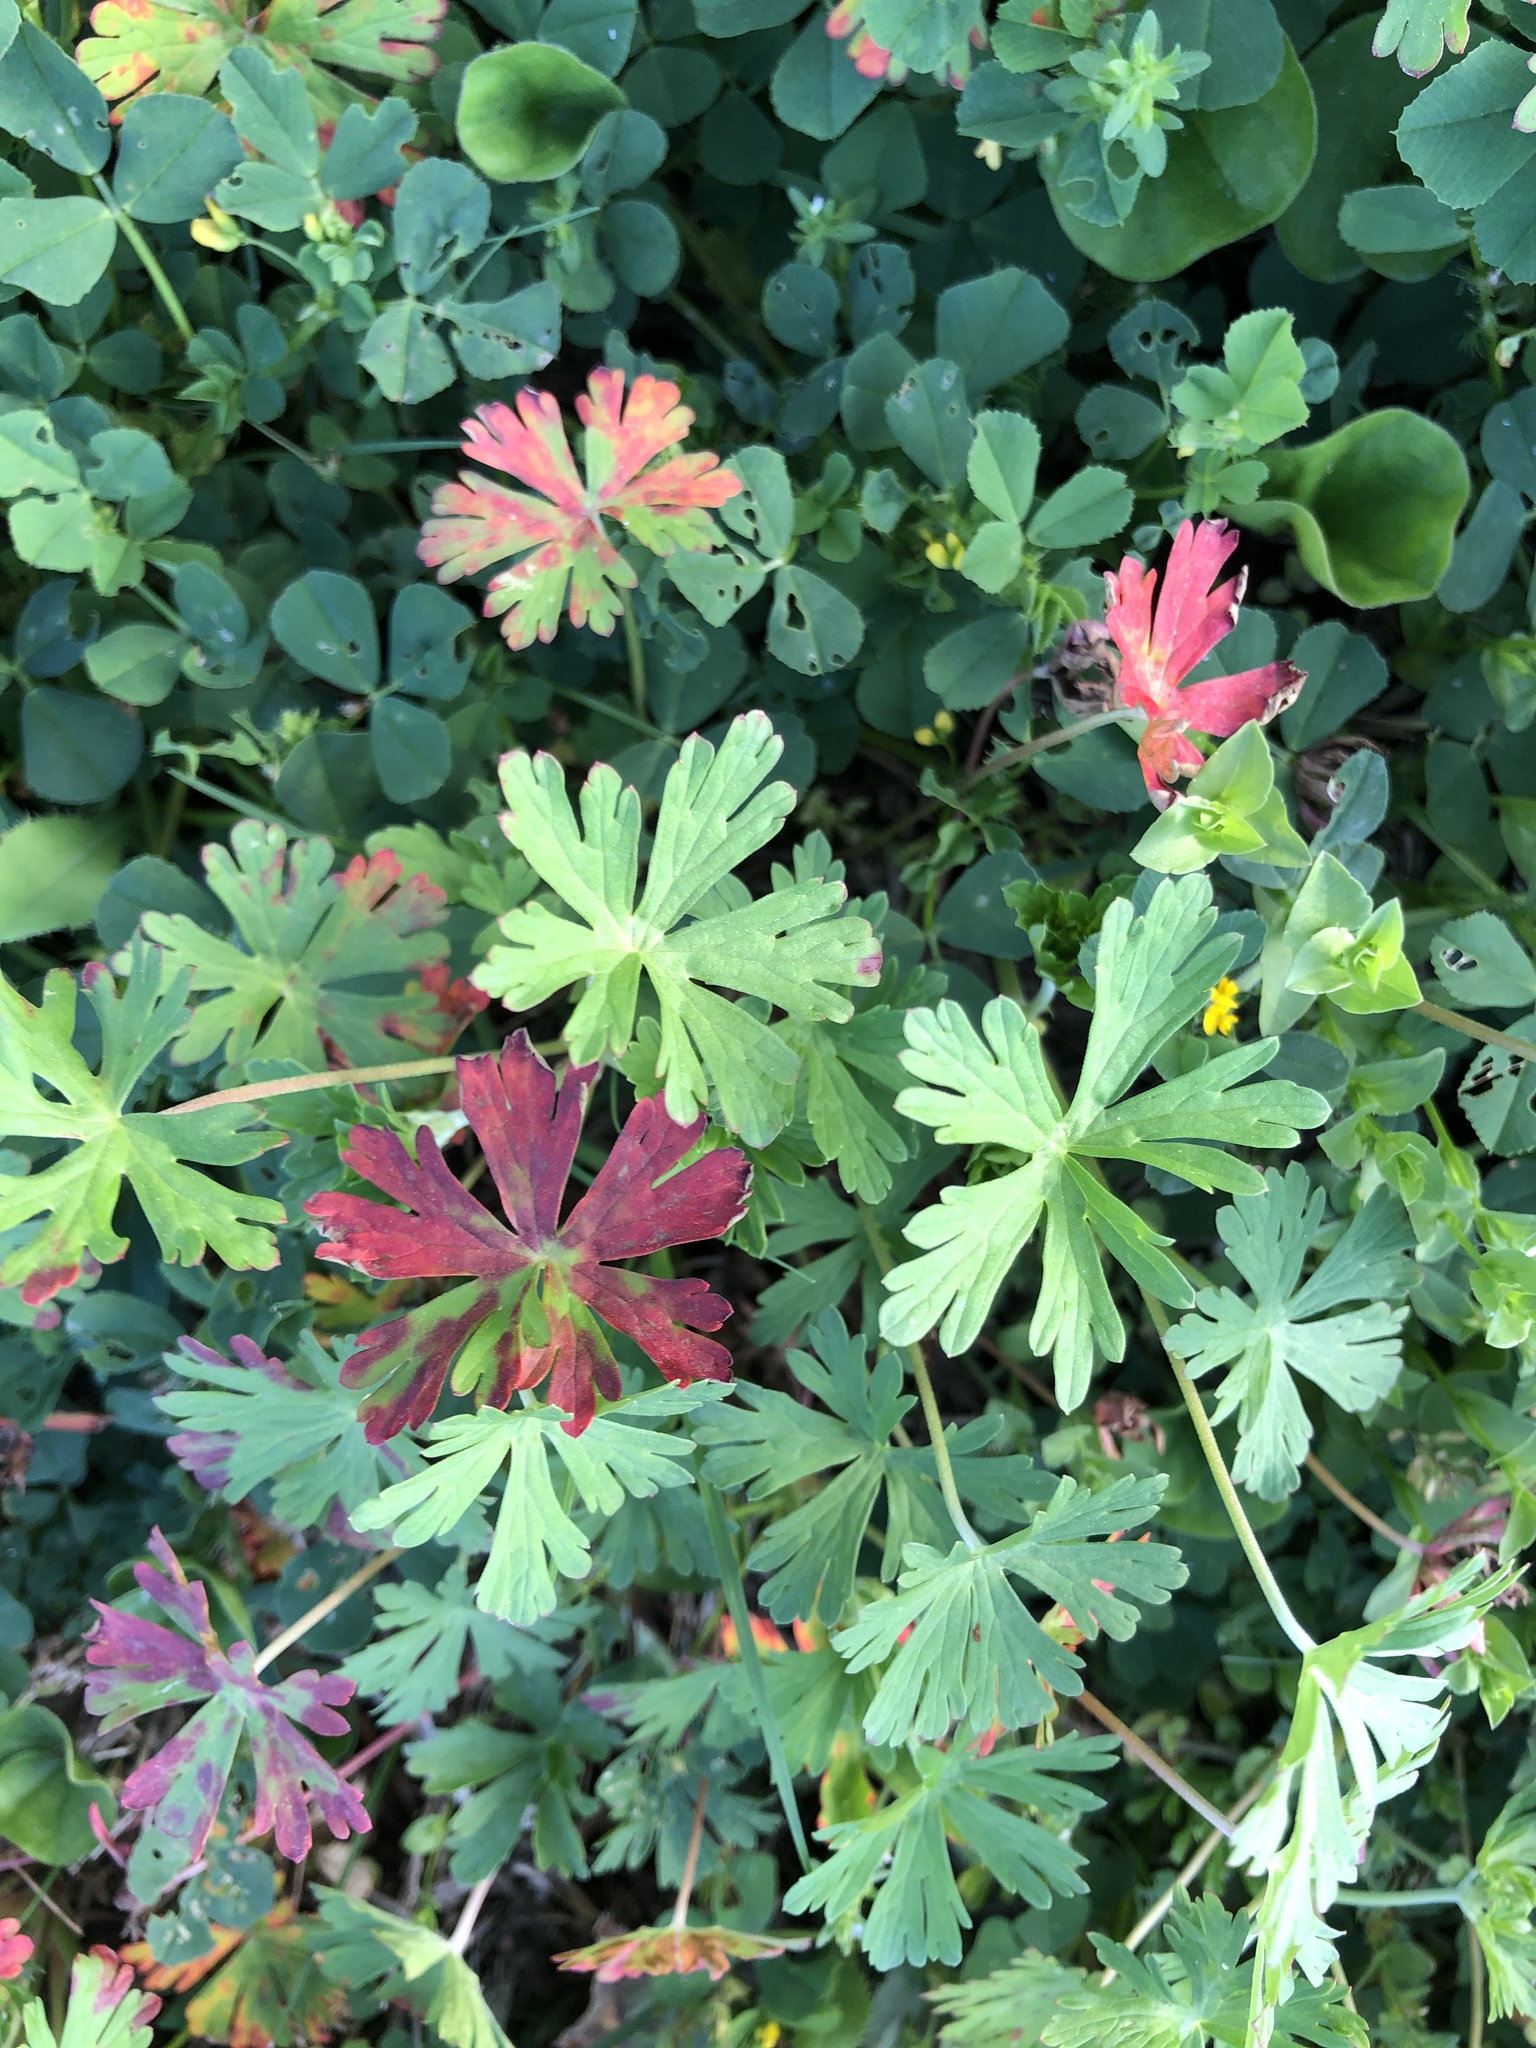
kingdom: Plantae
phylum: Tracheophyta
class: Magnoliopsida
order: Geraniales
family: Geraniaceae
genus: Geranium
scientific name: Geranium carolinianum
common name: Carolina crane's-bill
